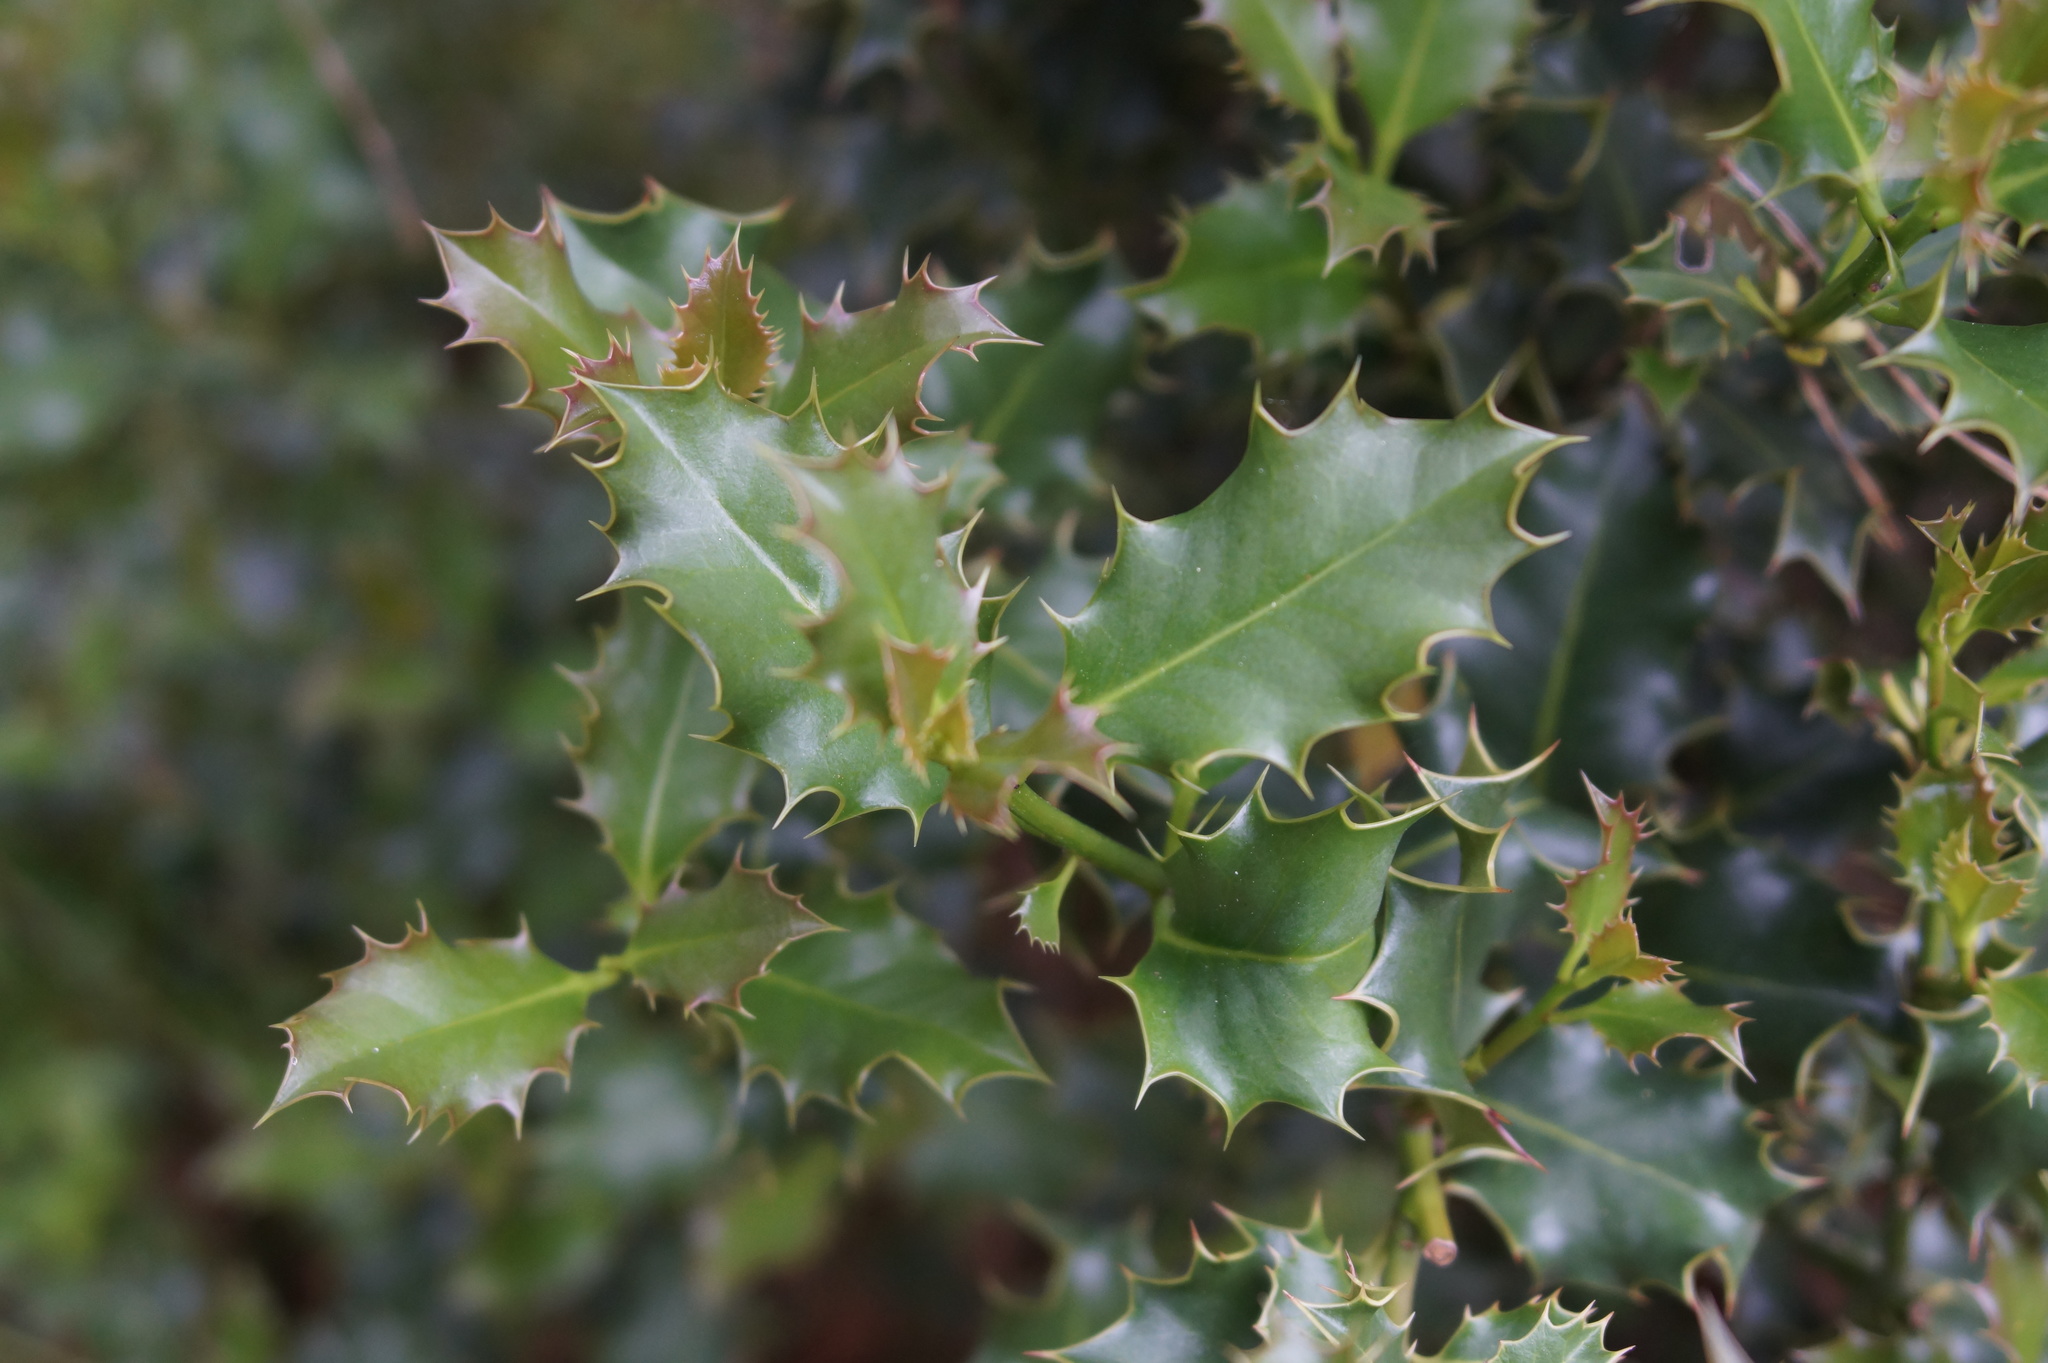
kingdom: Plantae
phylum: Tracheophyta
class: Magnoliopsida
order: Aquifoliales
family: Aquifoliaceae
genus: Ilex
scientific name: Ilex aquifolium
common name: English holly
